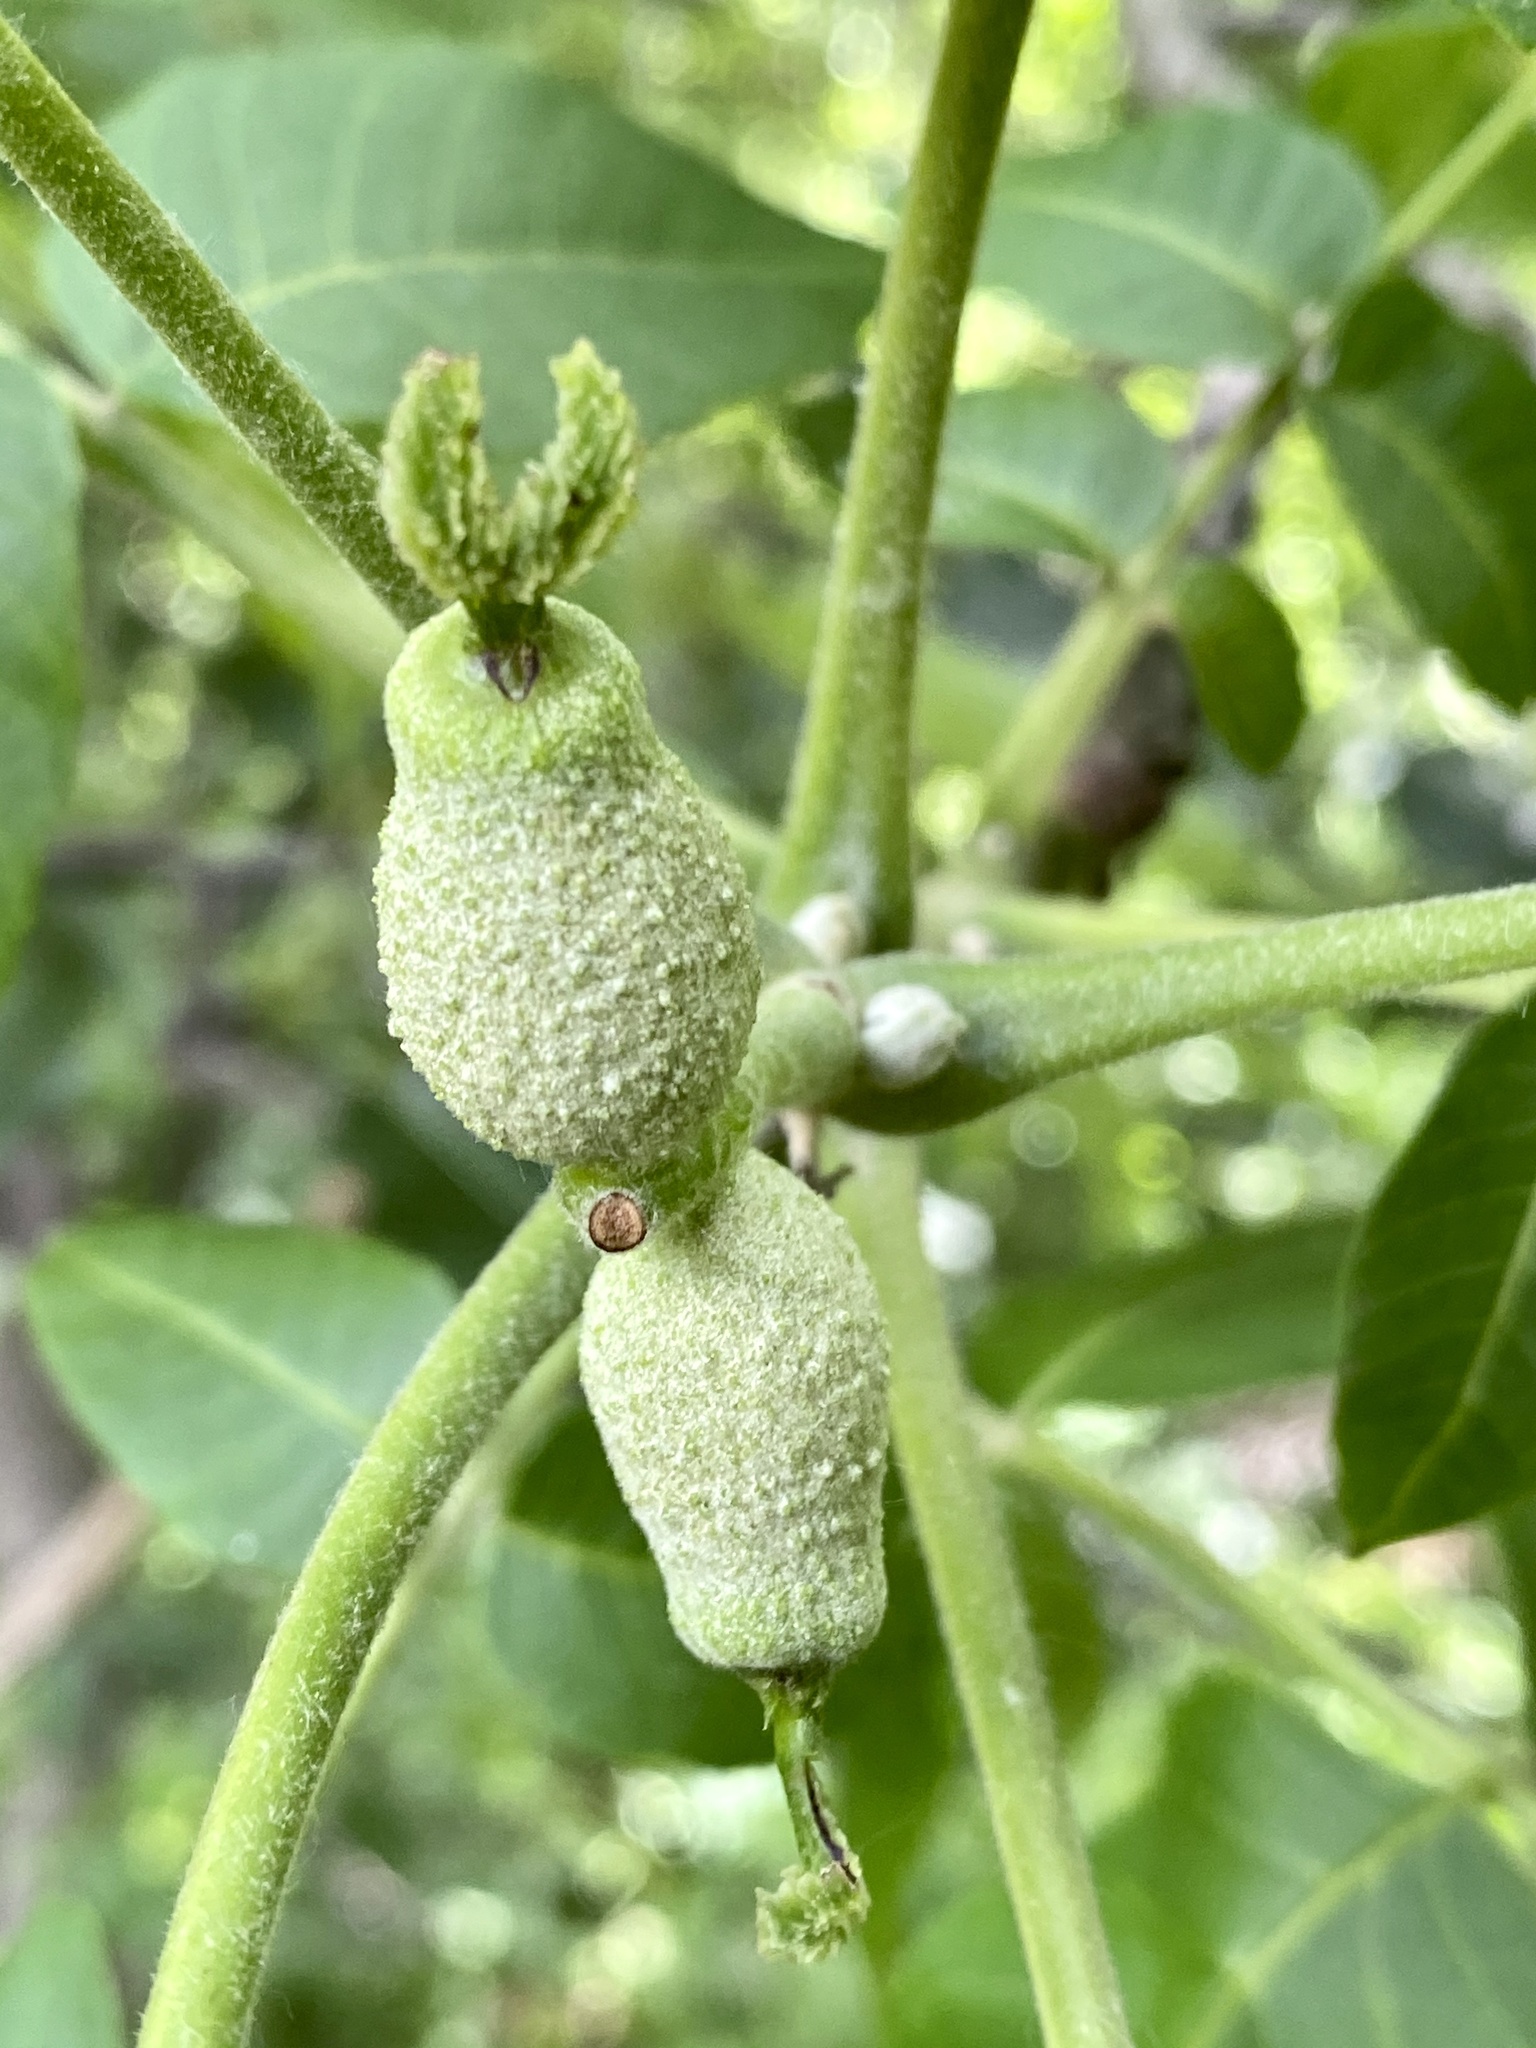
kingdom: Plantae
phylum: Tracheophyta
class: Magnoliopsida
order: Fagales
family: Juglandaceae
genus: Juglans
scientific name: Juglans nigra
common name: Black walnut
